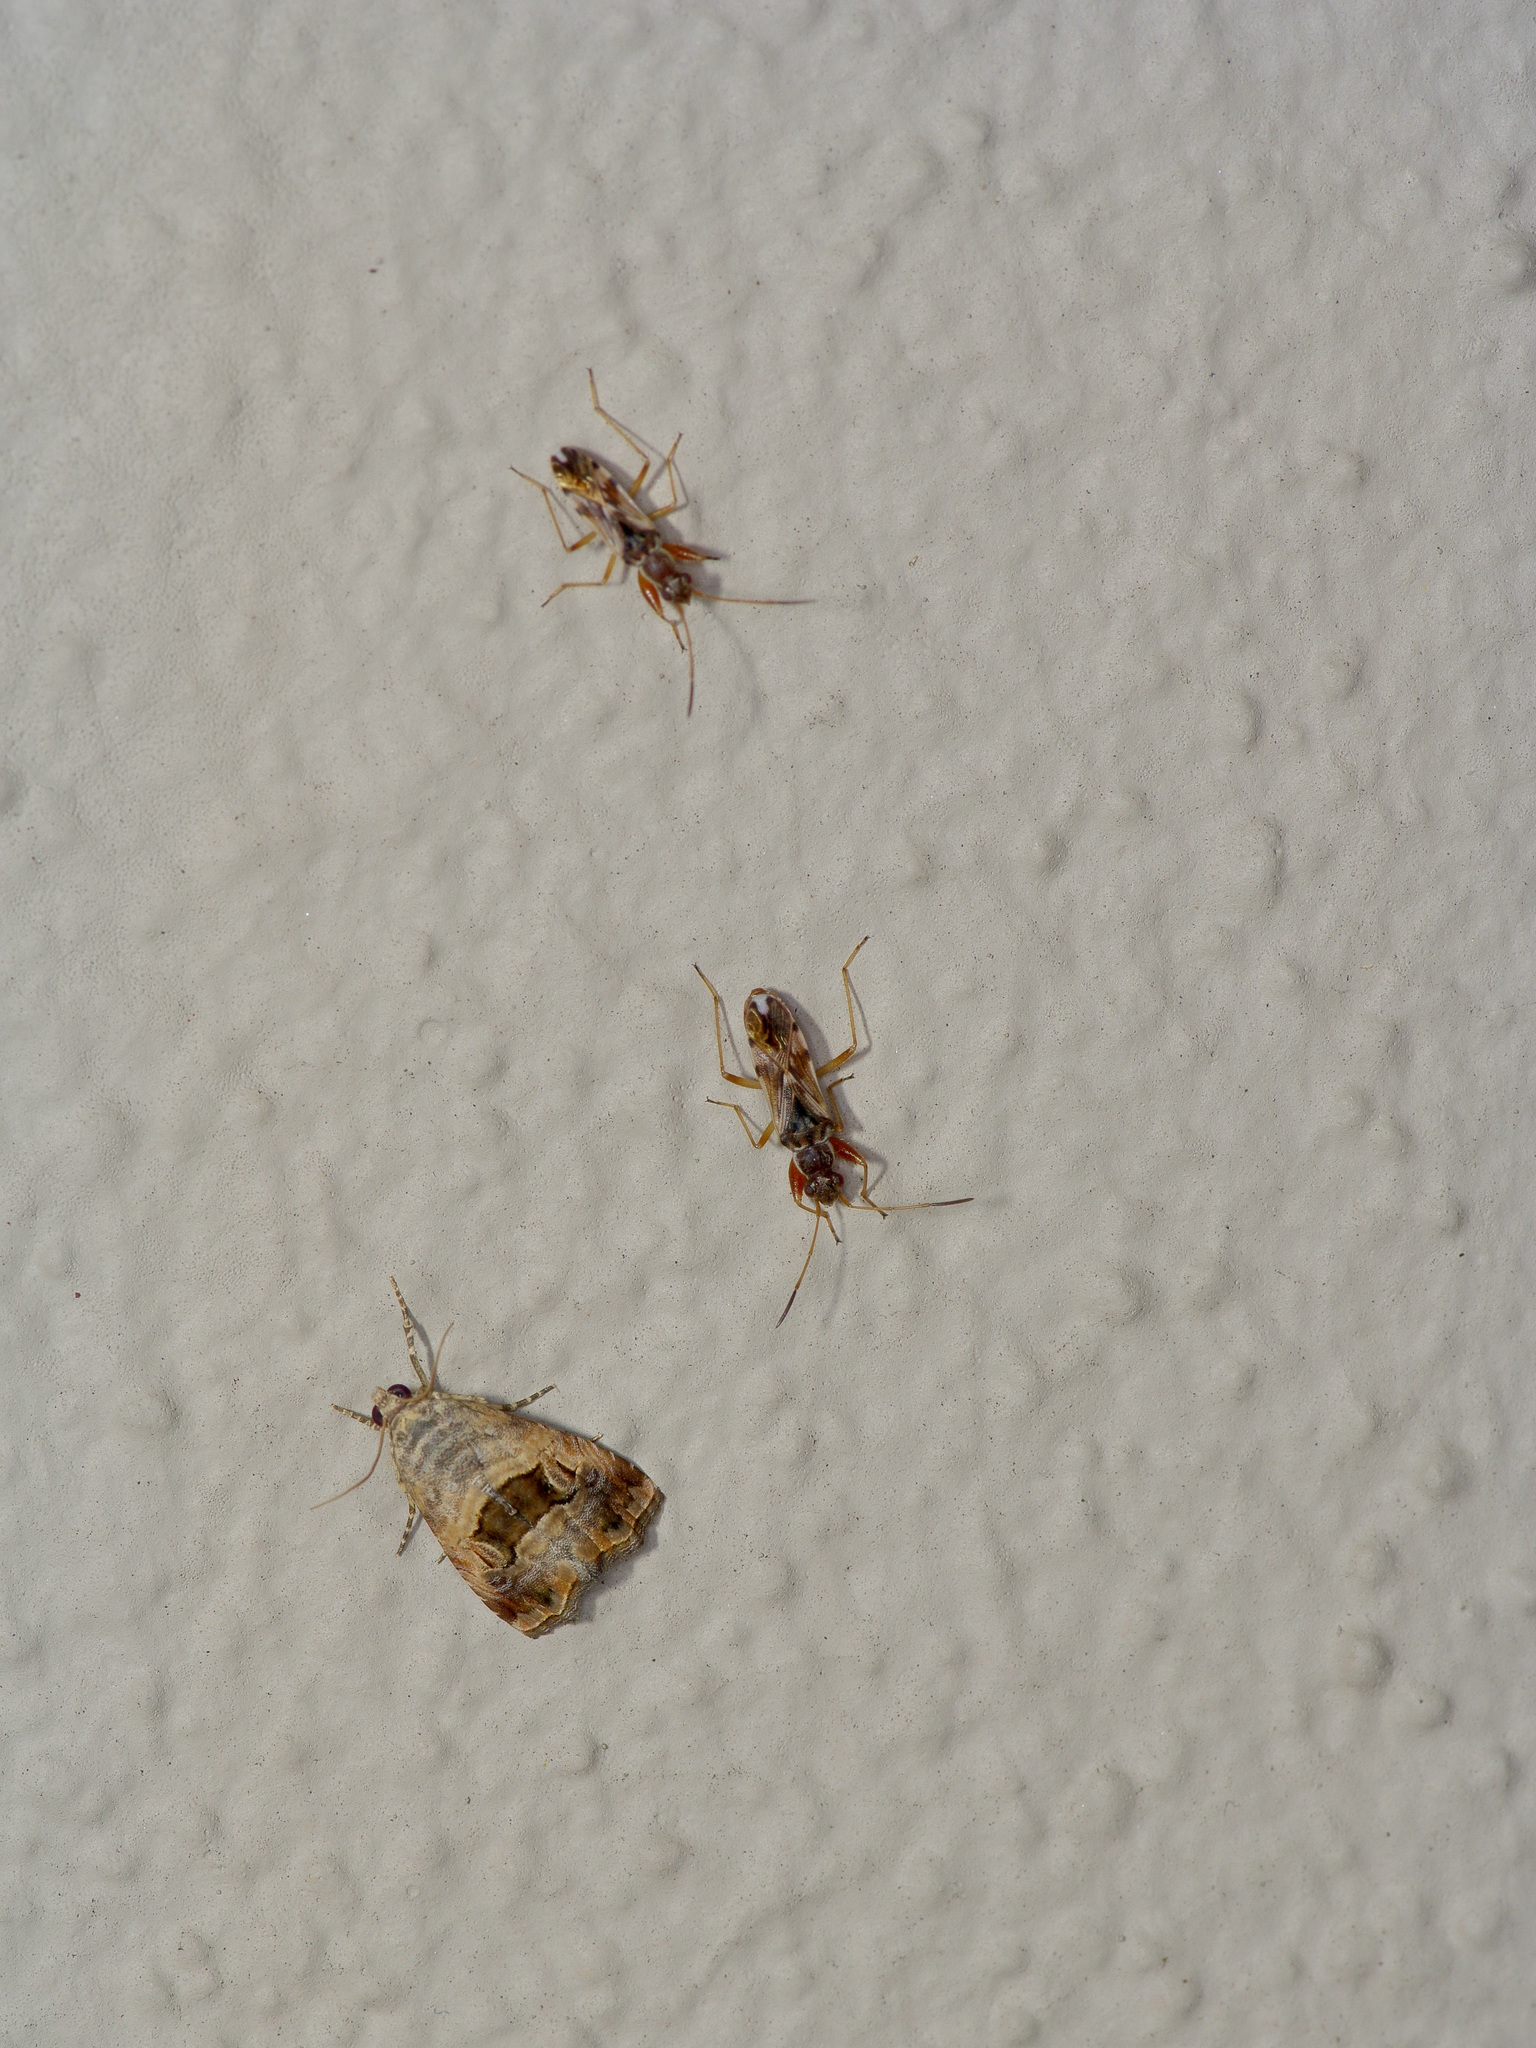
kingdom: Animalia
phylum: Arthropoda
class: Insecta
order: Hemiptera
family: Rhyparochromidae
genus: Neopamera
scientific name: Neopamera bilobata
